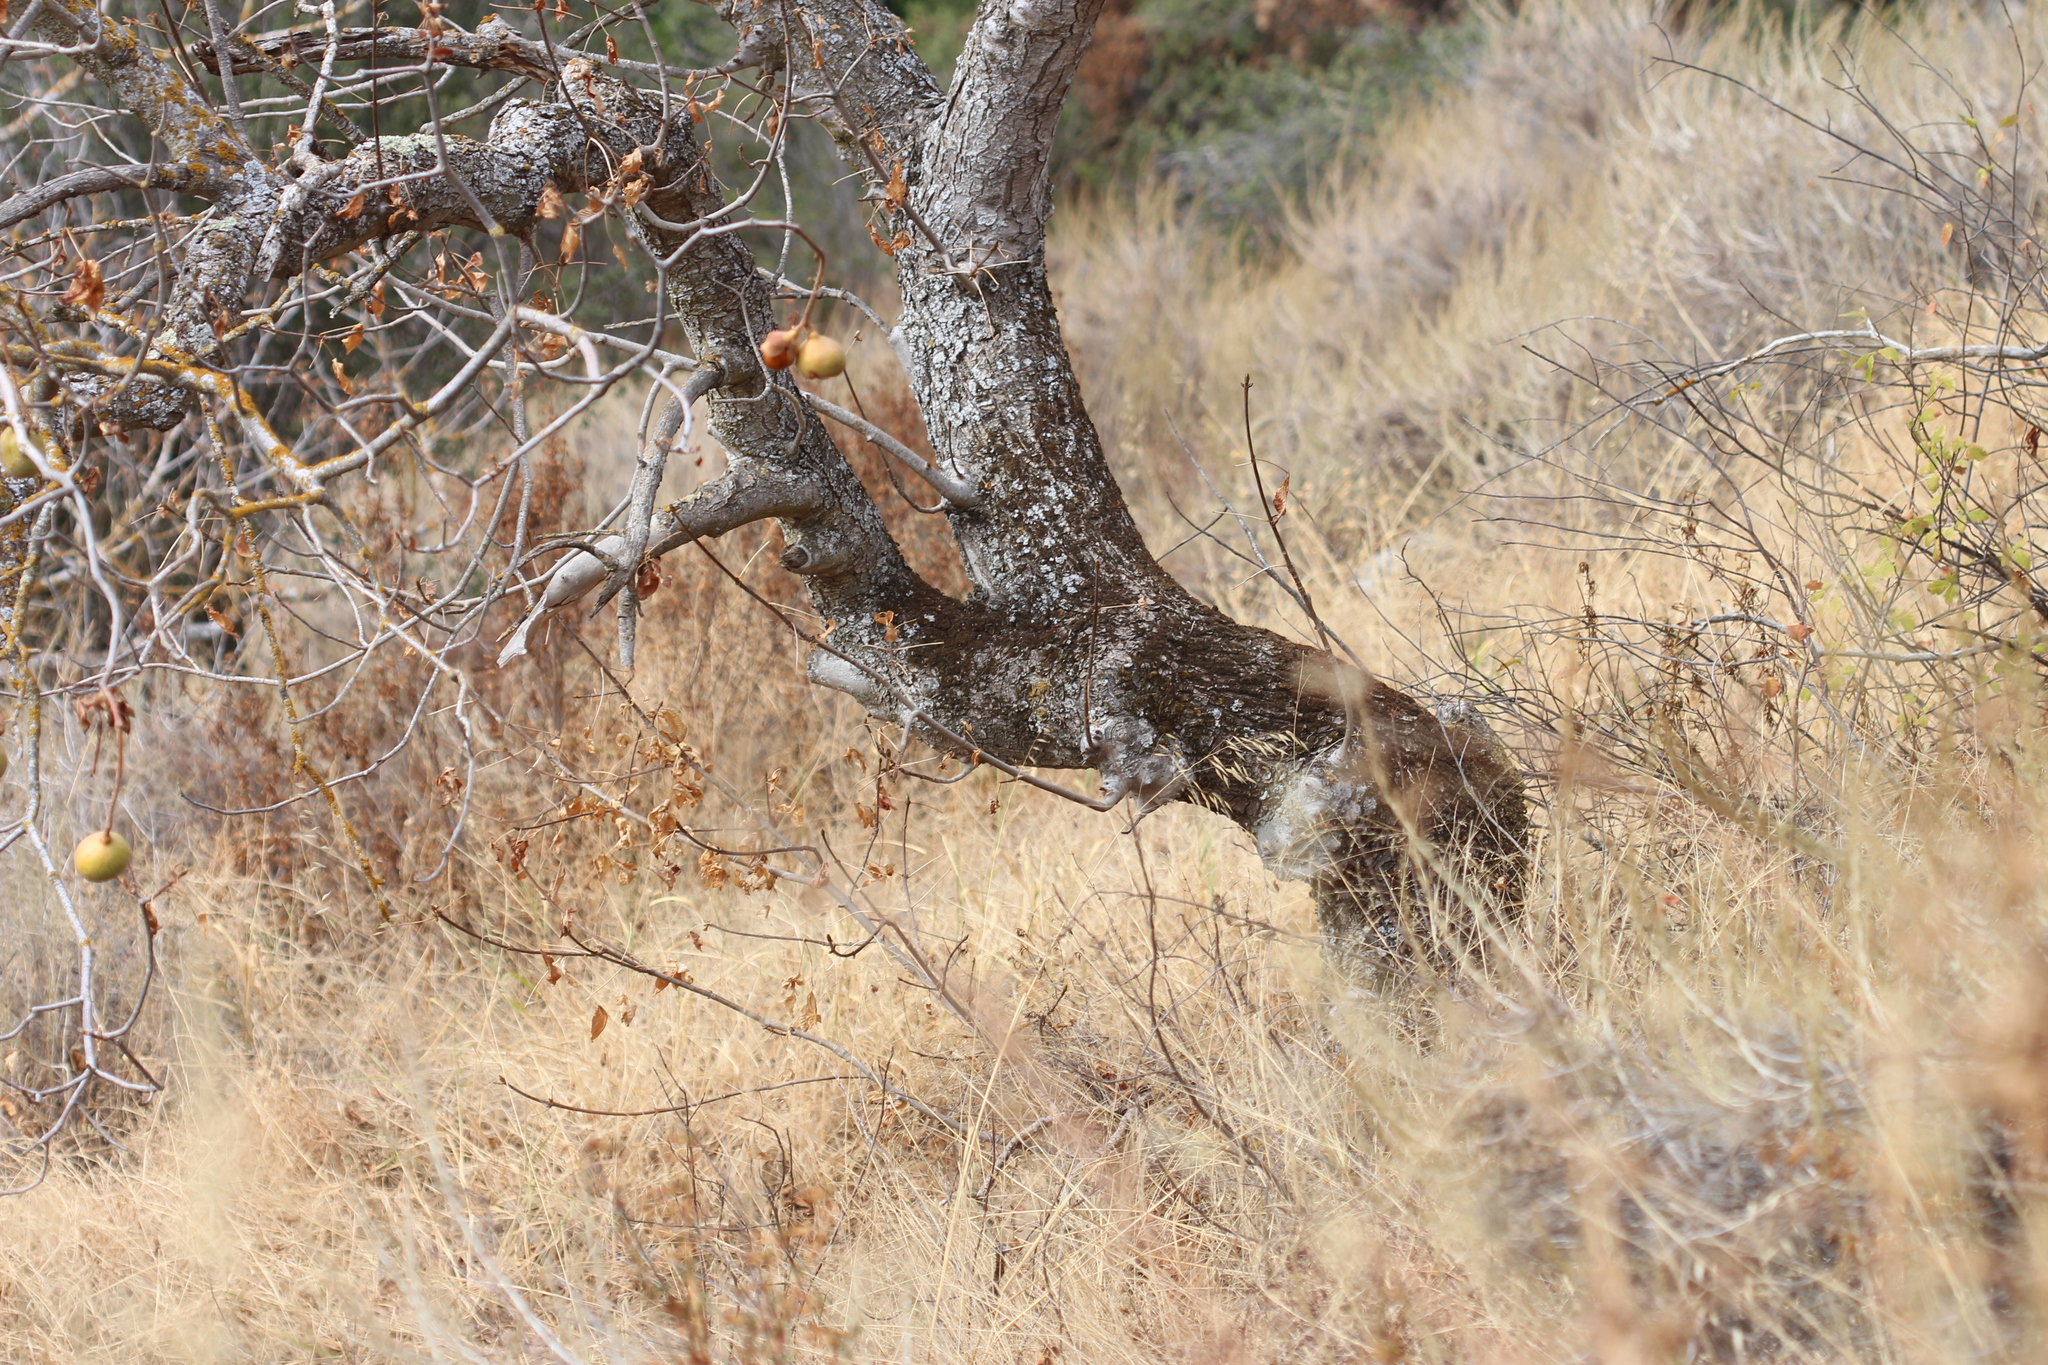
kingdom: Plantae
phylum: Tracheophyta
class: Magnoliopsida
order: Sapindales
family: Sapindaceae
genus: Aesculus
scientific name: Aesculus californica
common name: California buckeye
